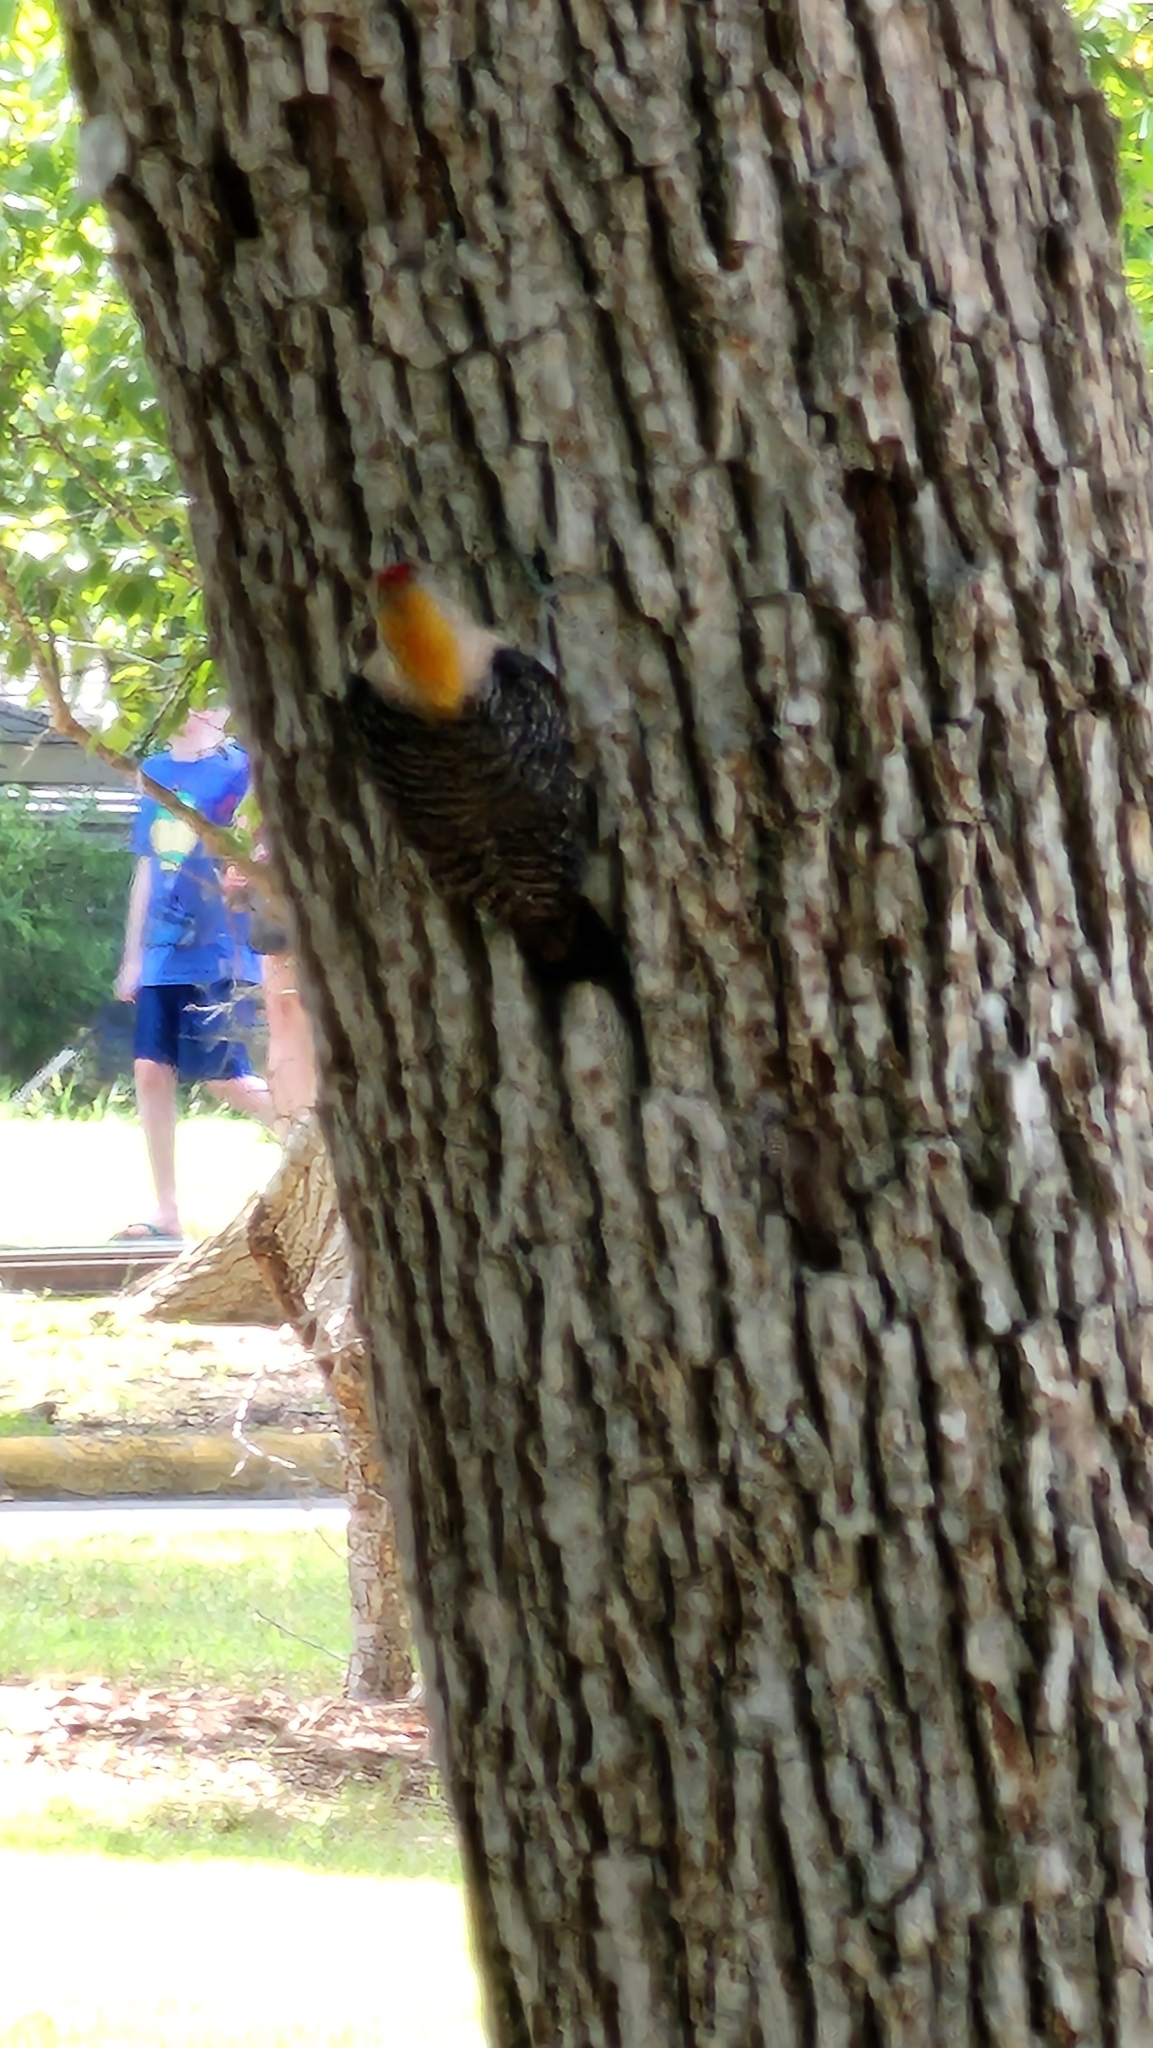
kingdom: Animalia
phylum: Chordata
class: Aves
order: Piciformes
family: Picidae
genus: Melanerpes
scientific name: Melanerpes aurifrons
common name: Golden-fronted woodpecker
